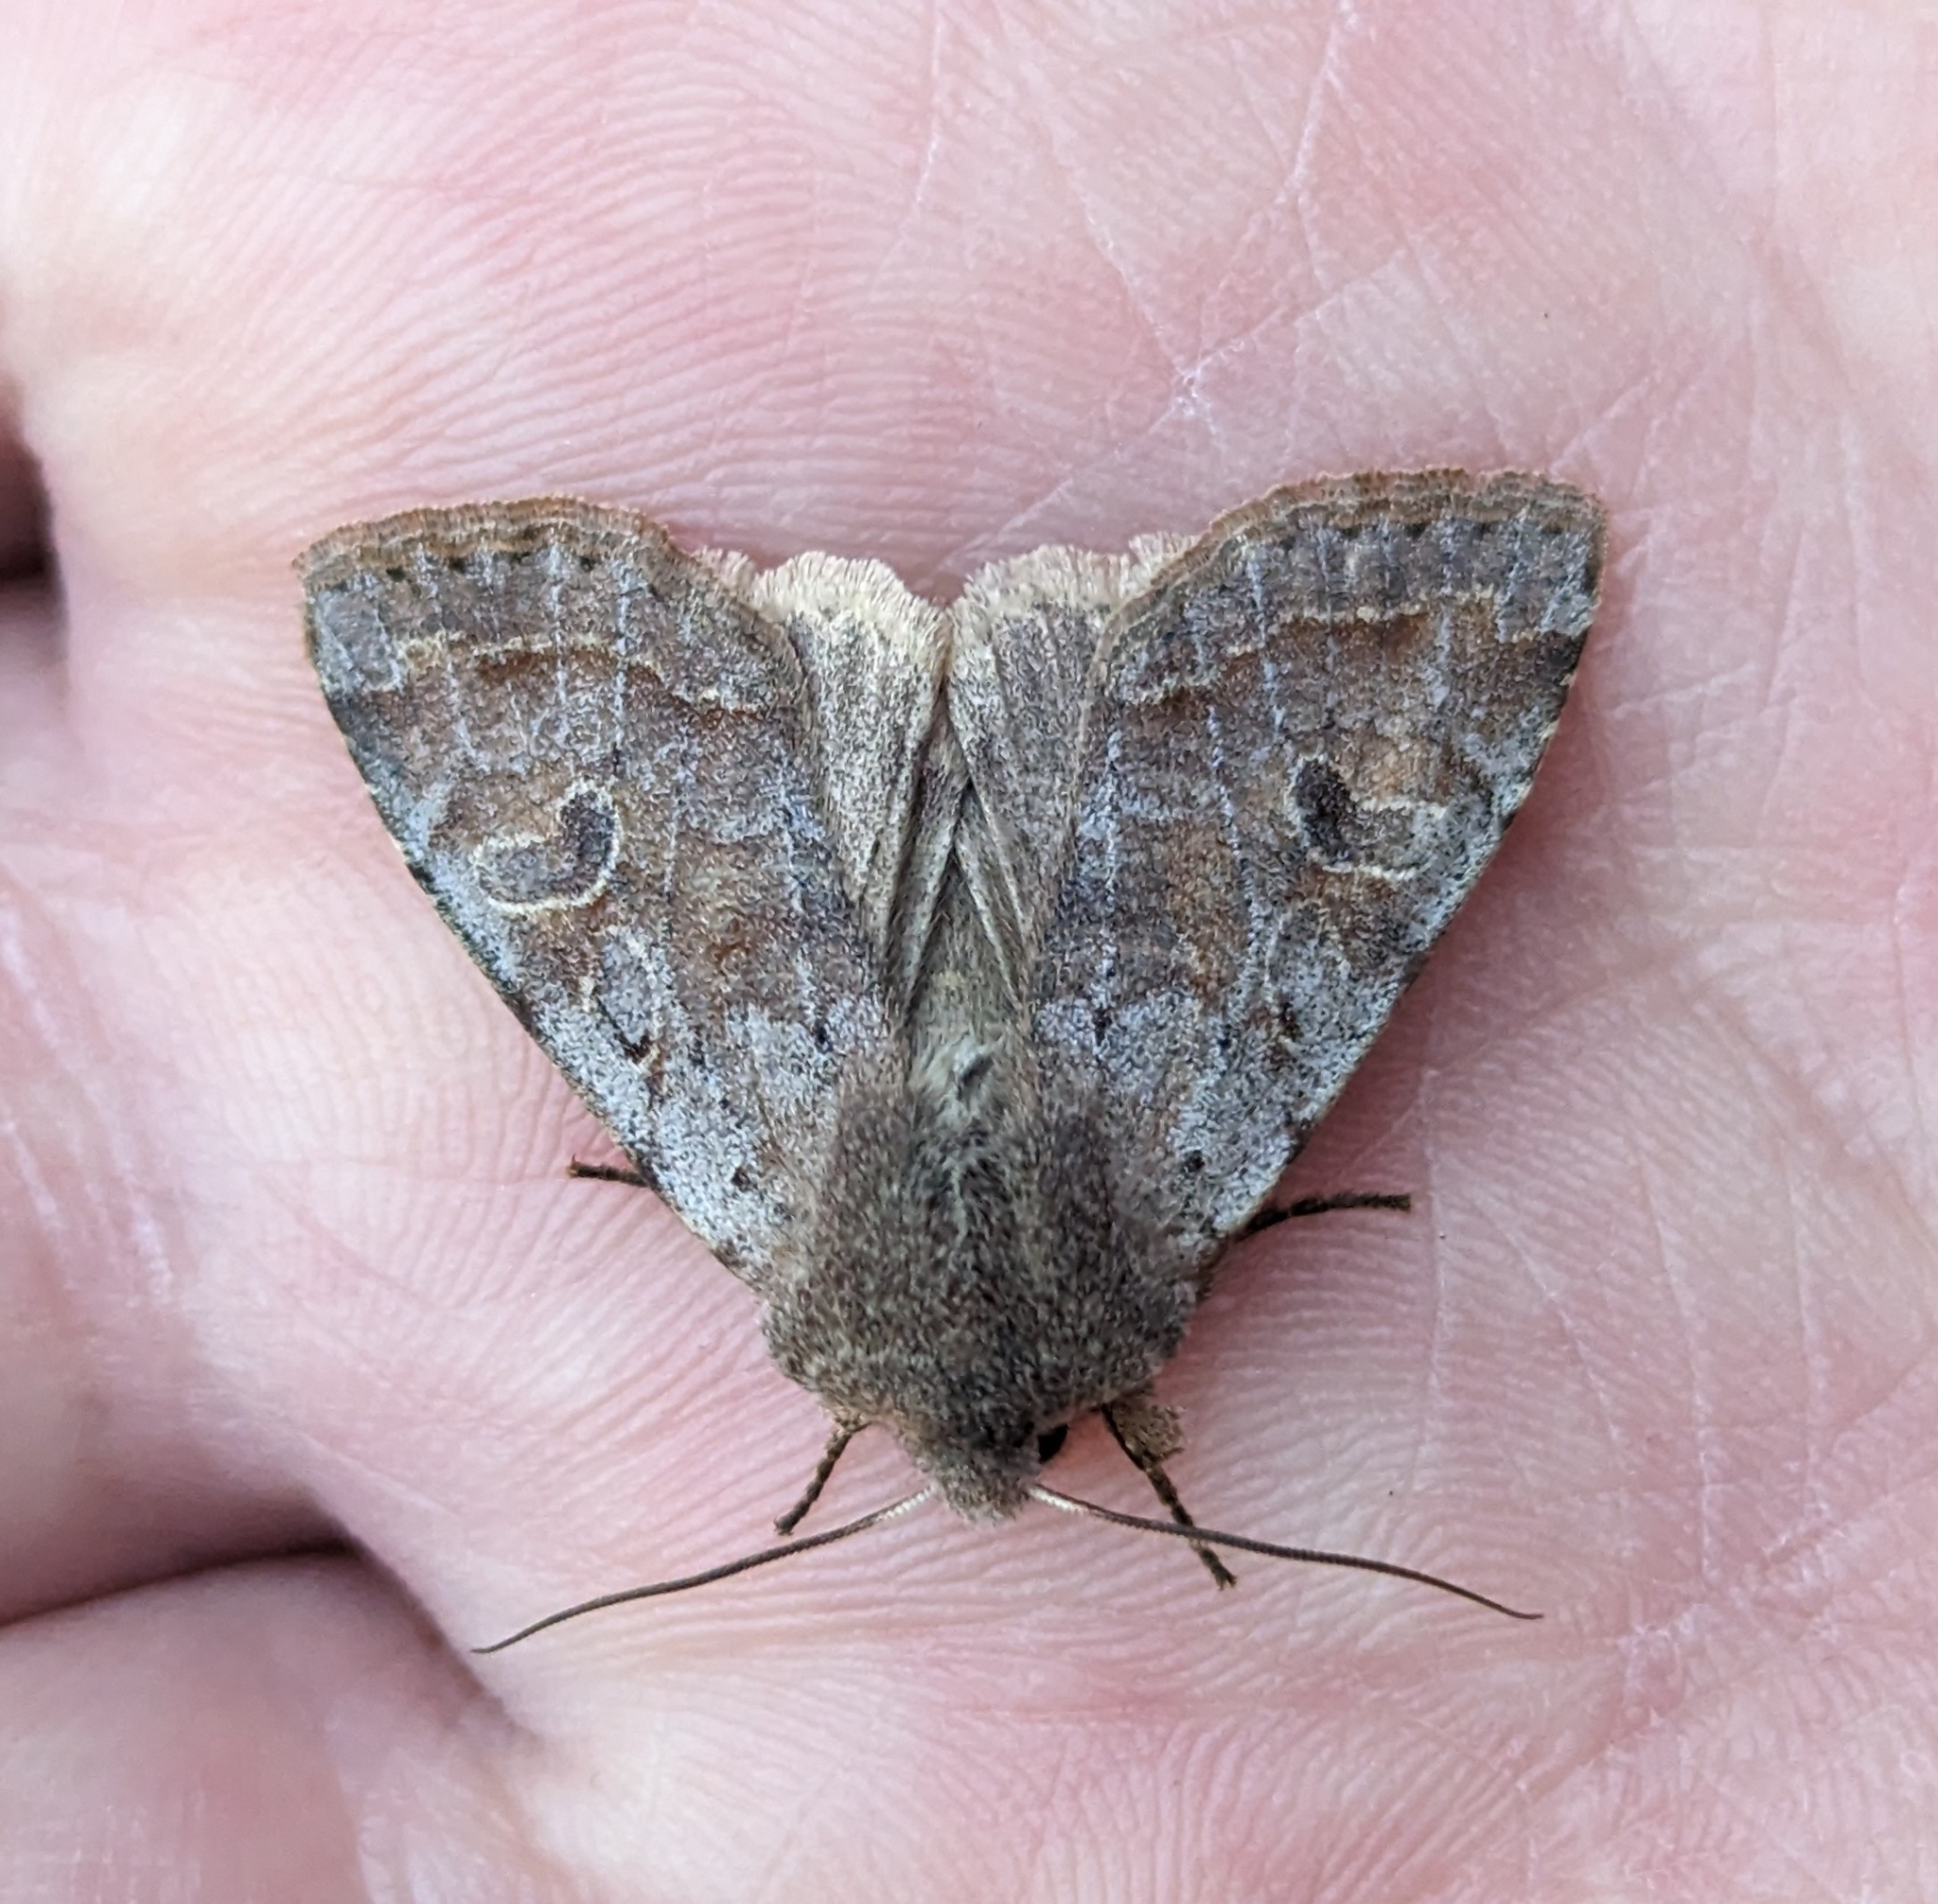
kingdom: Animalia
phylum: Arthropoda
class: Insecta
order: Lepidoptera
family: Noctuidae
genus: Orthosia
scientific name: Orthosia hibisci
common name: Green fruitworm
